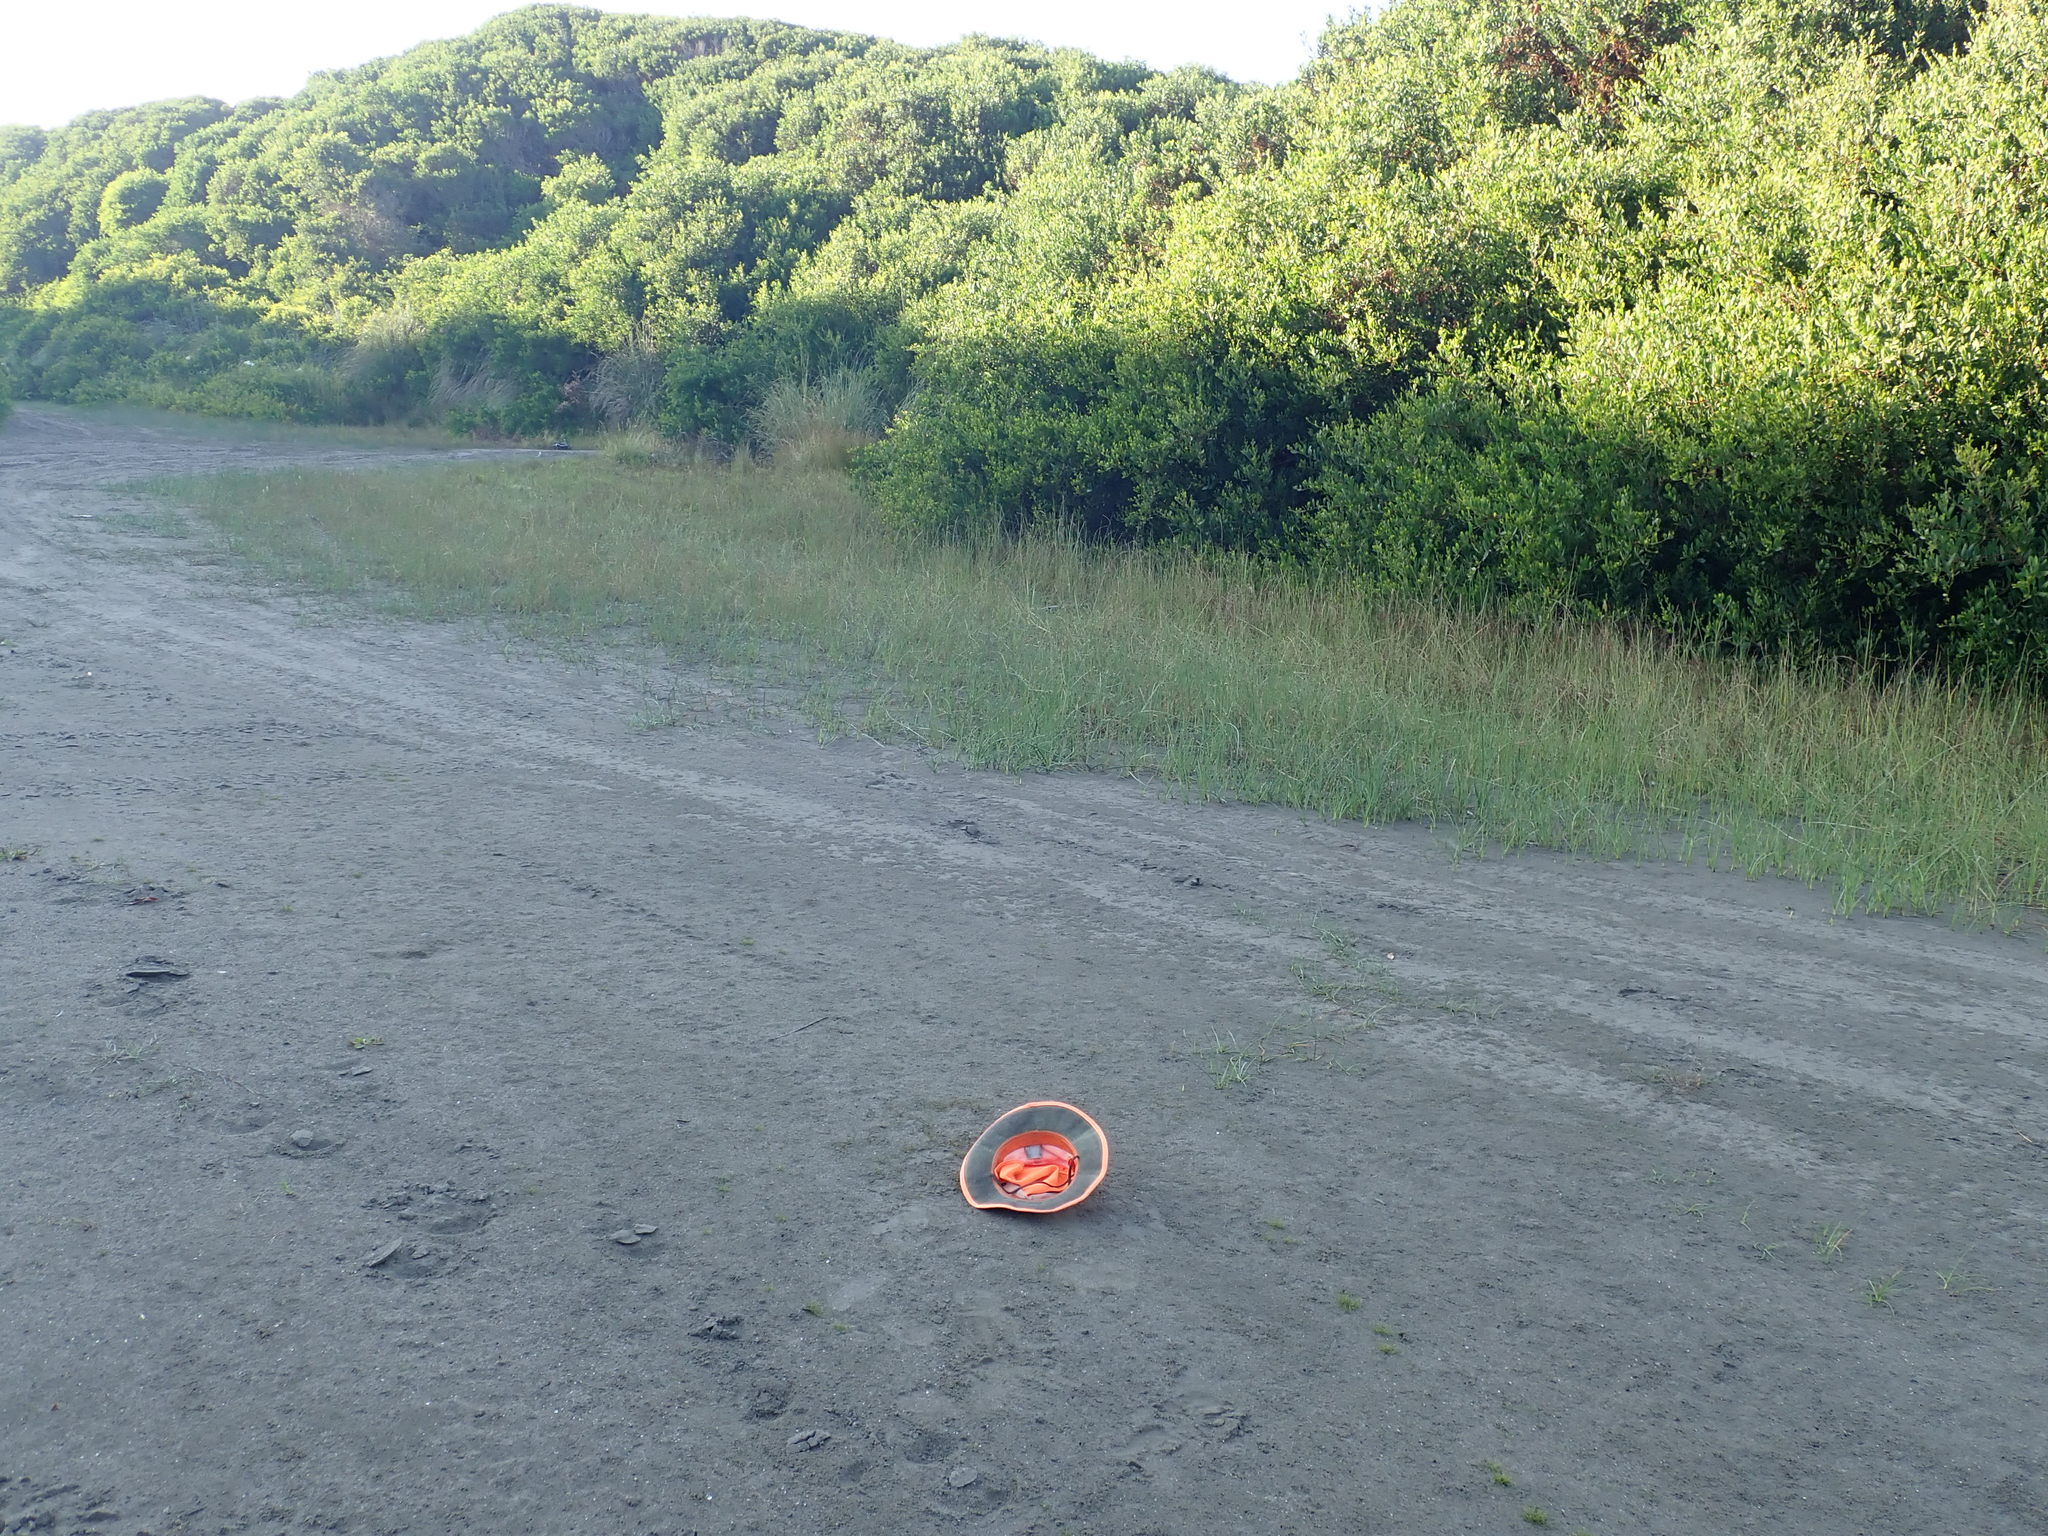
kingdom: Plantae
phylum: Tracheophyta
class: Liliopsida
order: Alismatales
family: Juncaginaceae
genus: Triglochin
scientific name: Triglochin striata
